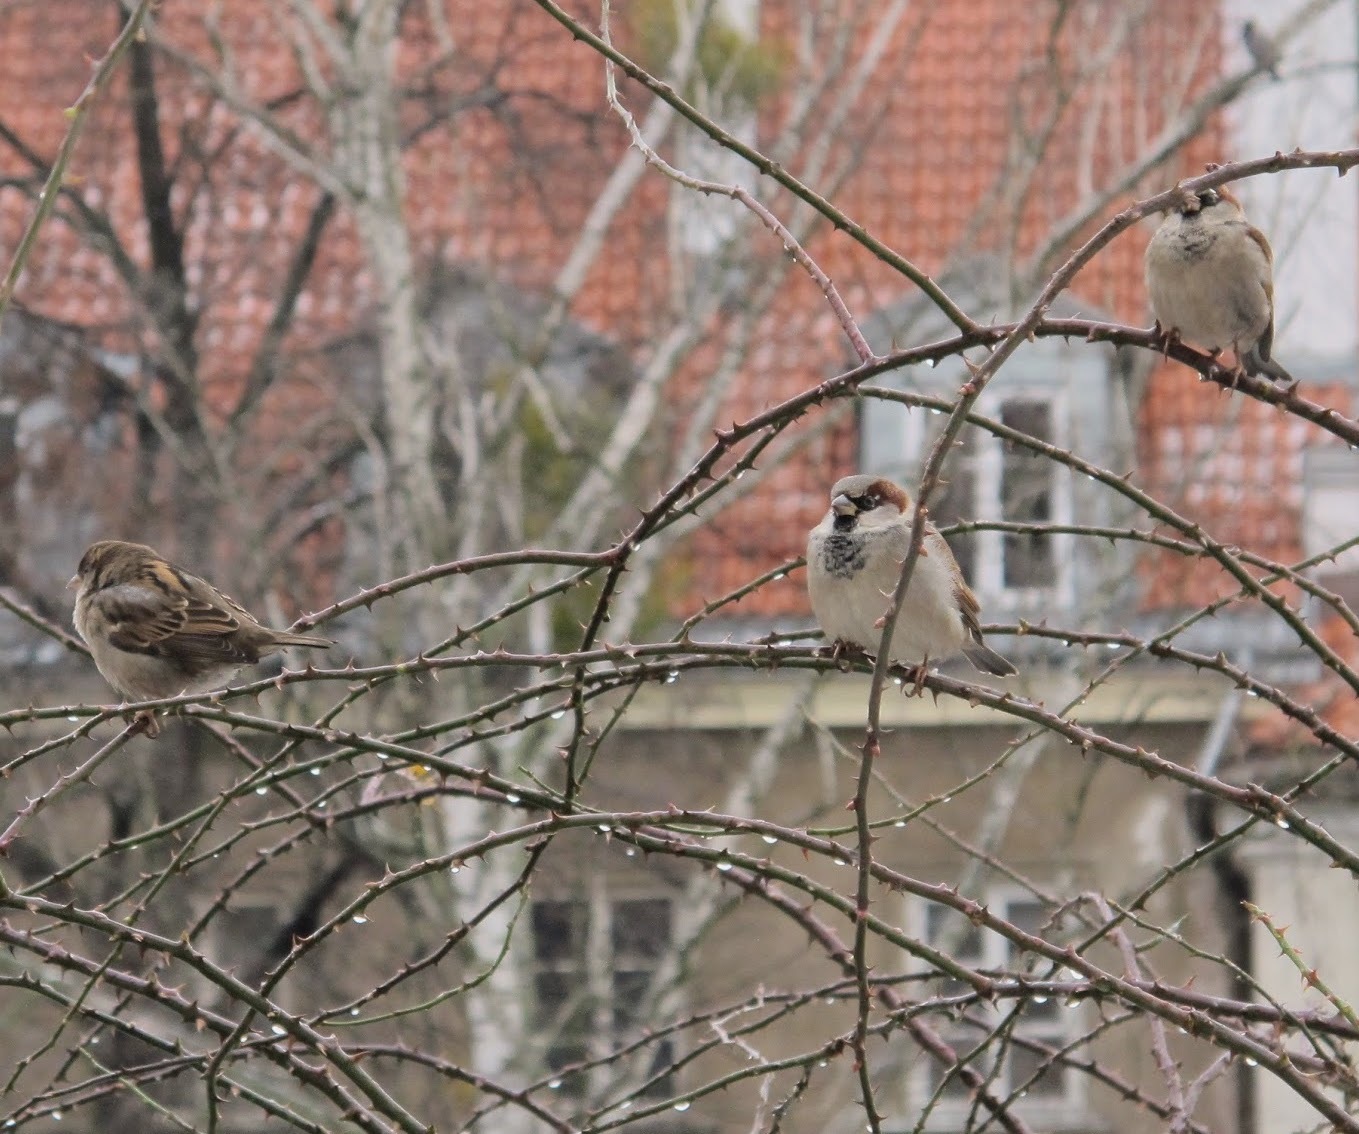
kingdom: Animalia
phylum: Chordata
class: Aves
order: Passeriformes
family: Passeridae
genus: Passer
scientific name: Passer domesticus
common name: House sparrow
